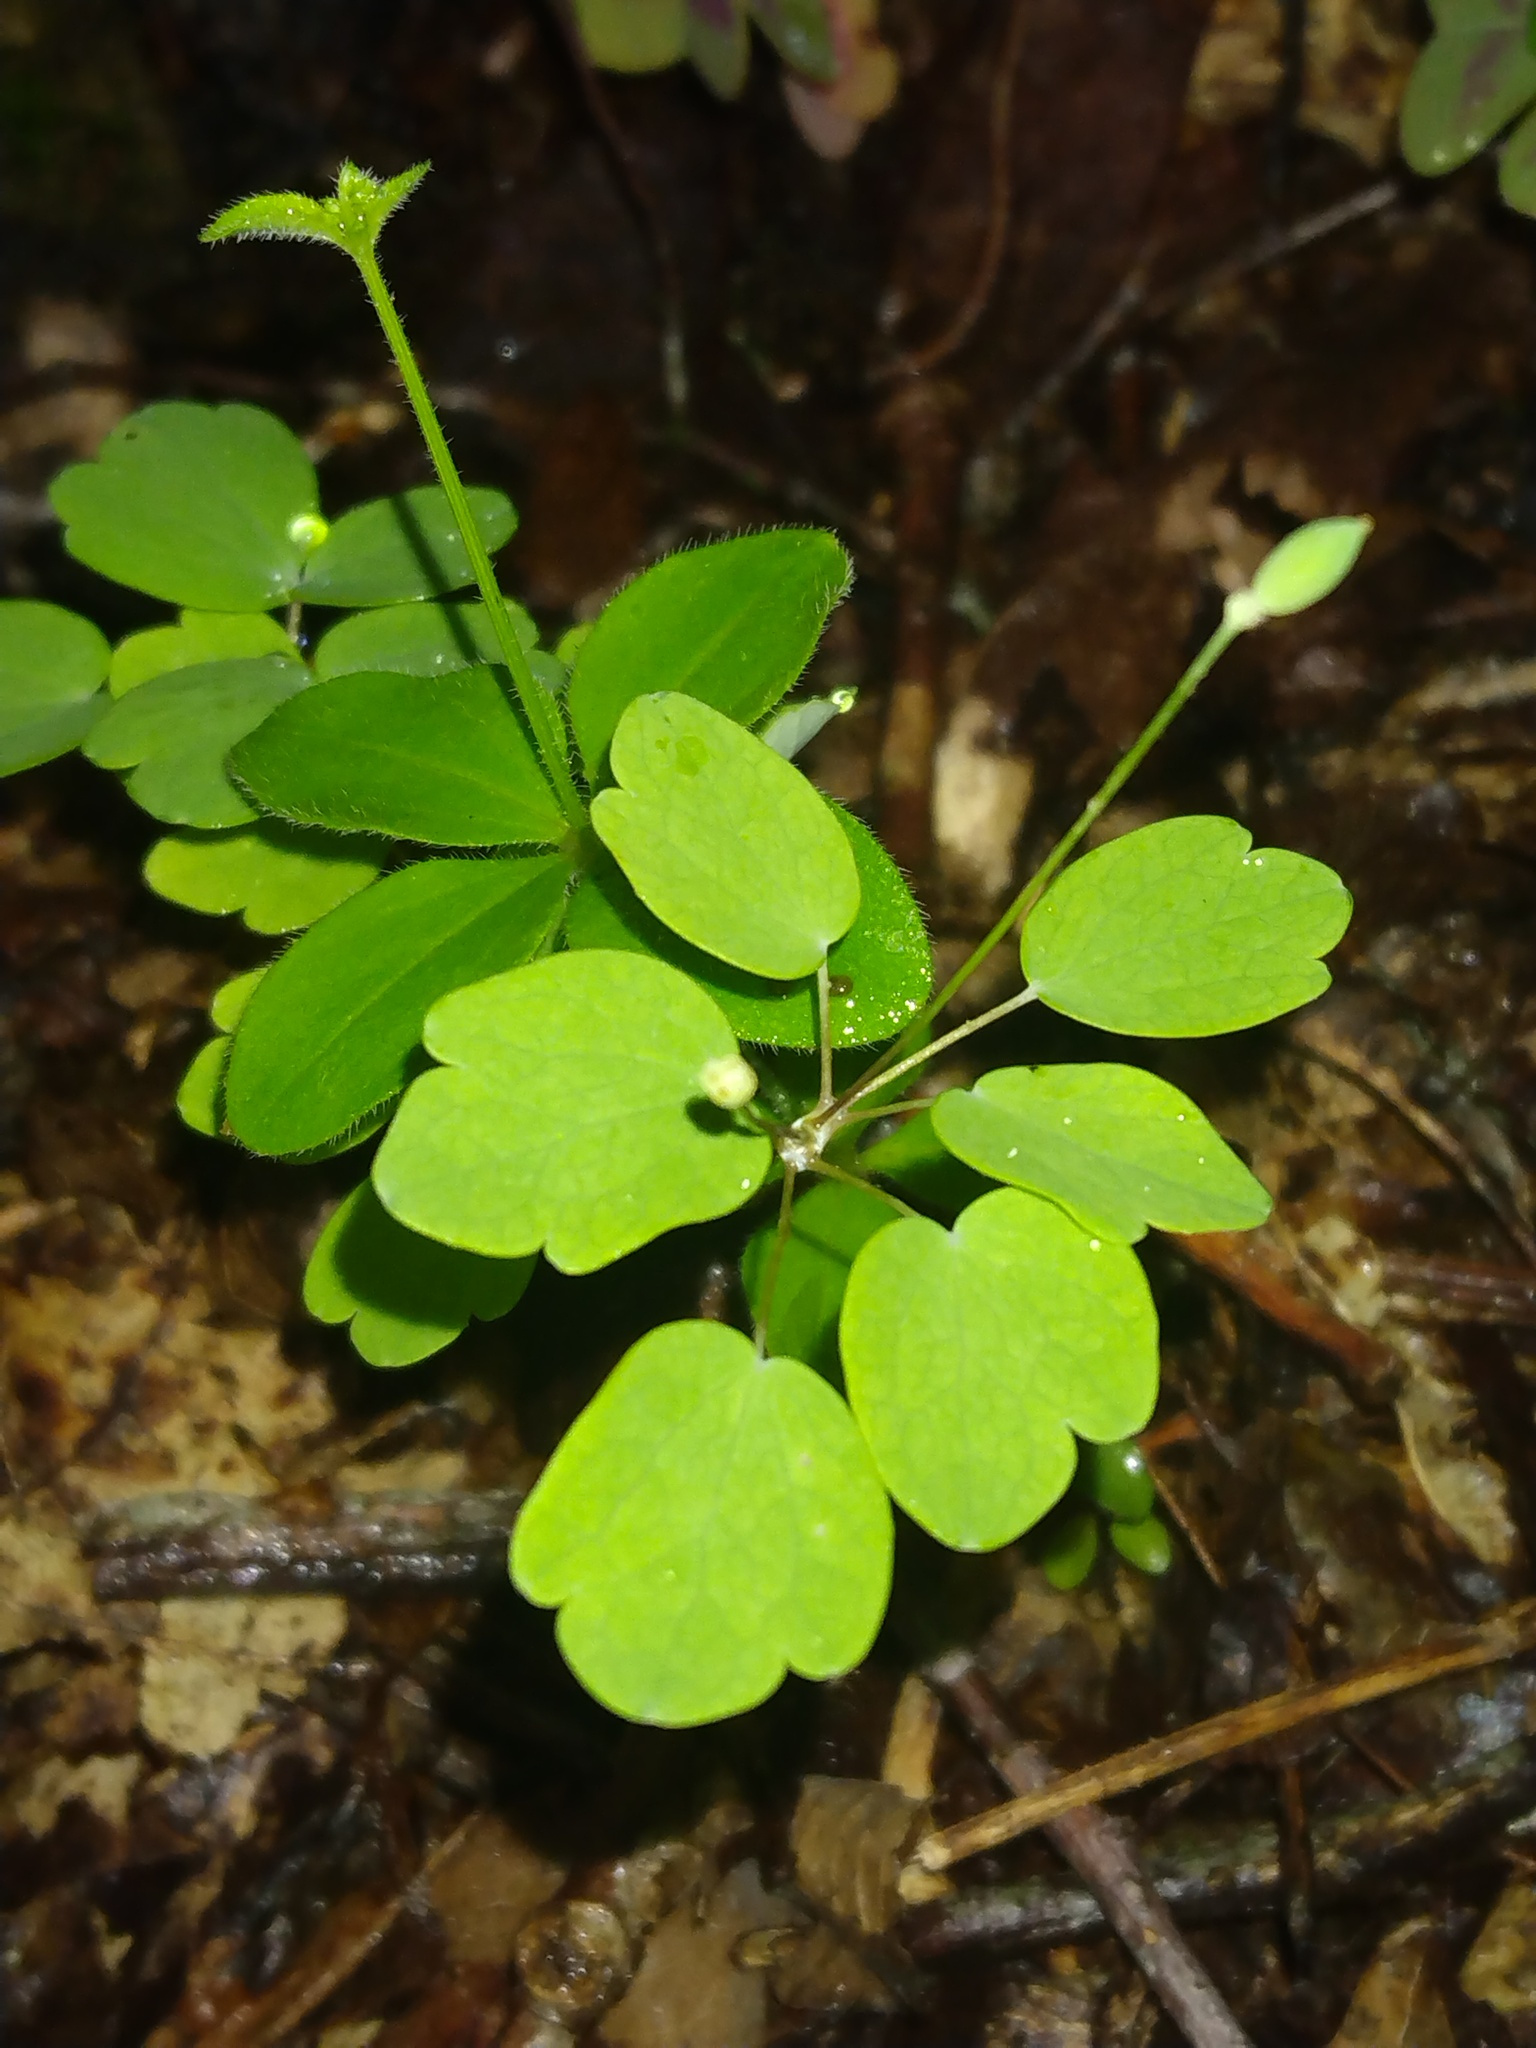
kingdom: Plantae
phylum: Tracheophyta
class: Magnoliopsida
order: Ranunculales
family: Ranunculaceae
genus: Thalictrum
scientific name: Thalictrum thalictroides
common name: Rue-anemone
